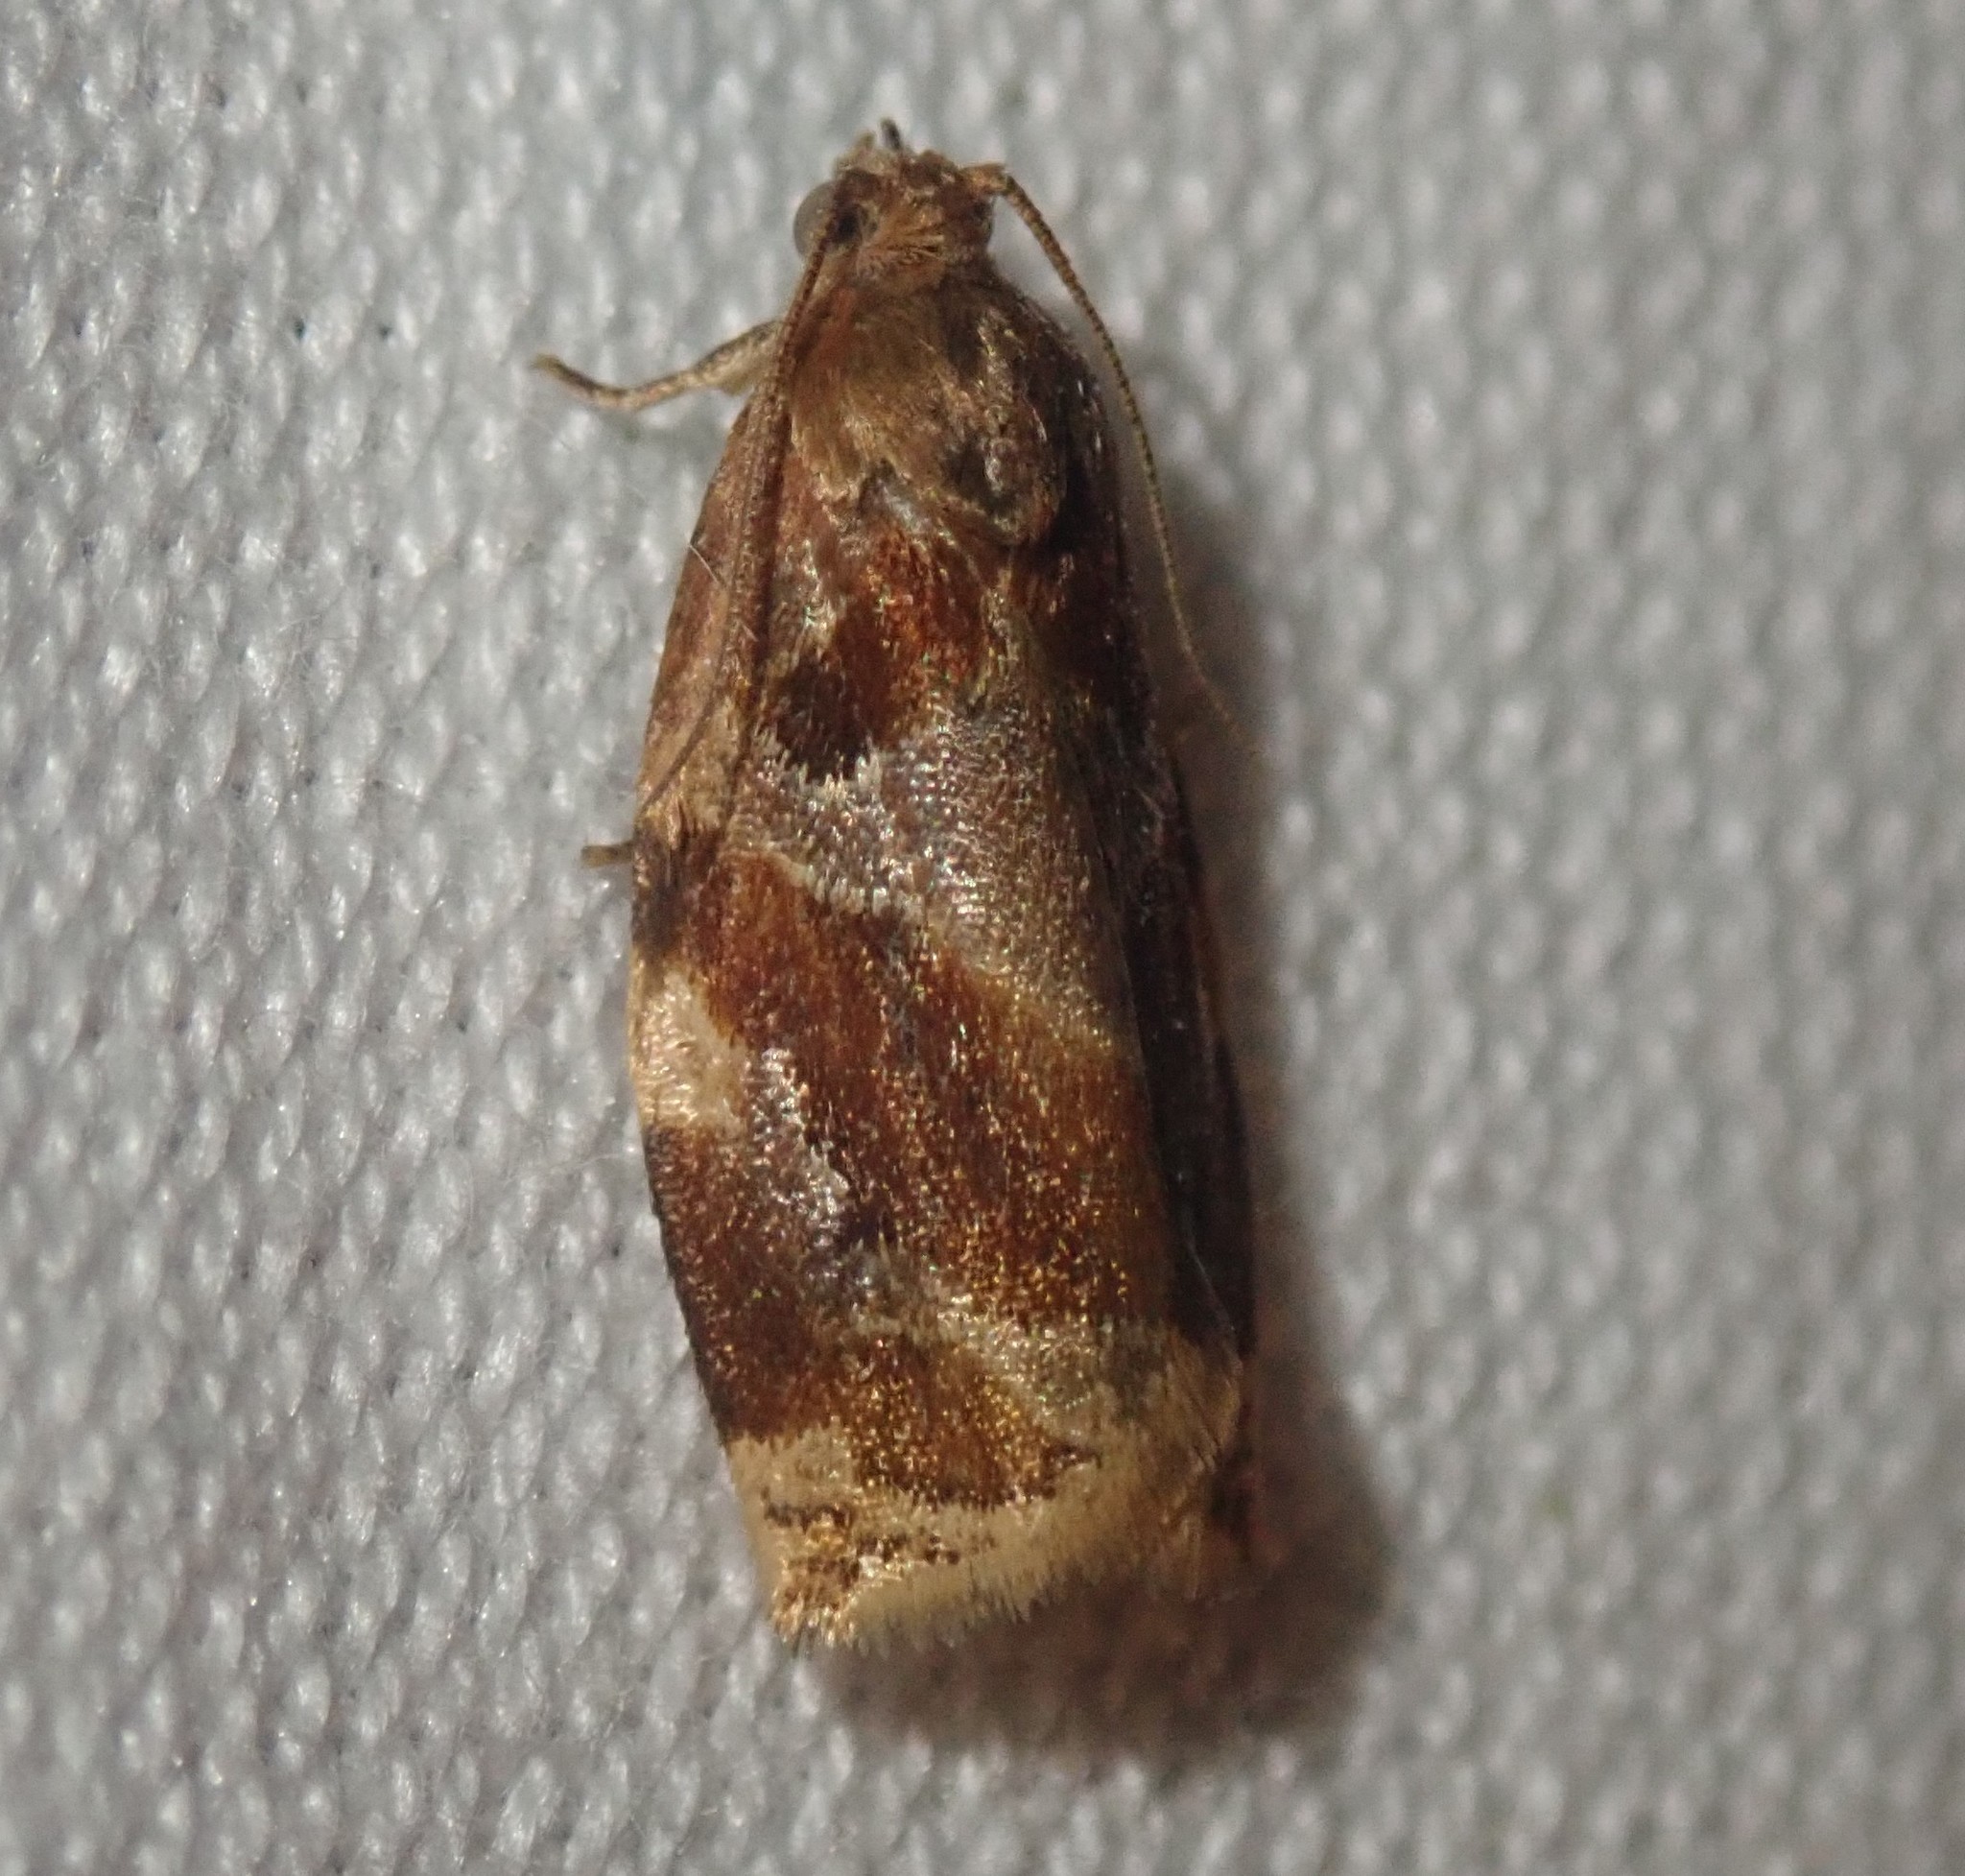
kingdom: Animalia
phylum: Arthropoda
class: Insecta
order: Lepidoptera
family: Tortricidae
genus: Archips
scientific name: Archips xylosteana
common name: Variegated golden tortrix
